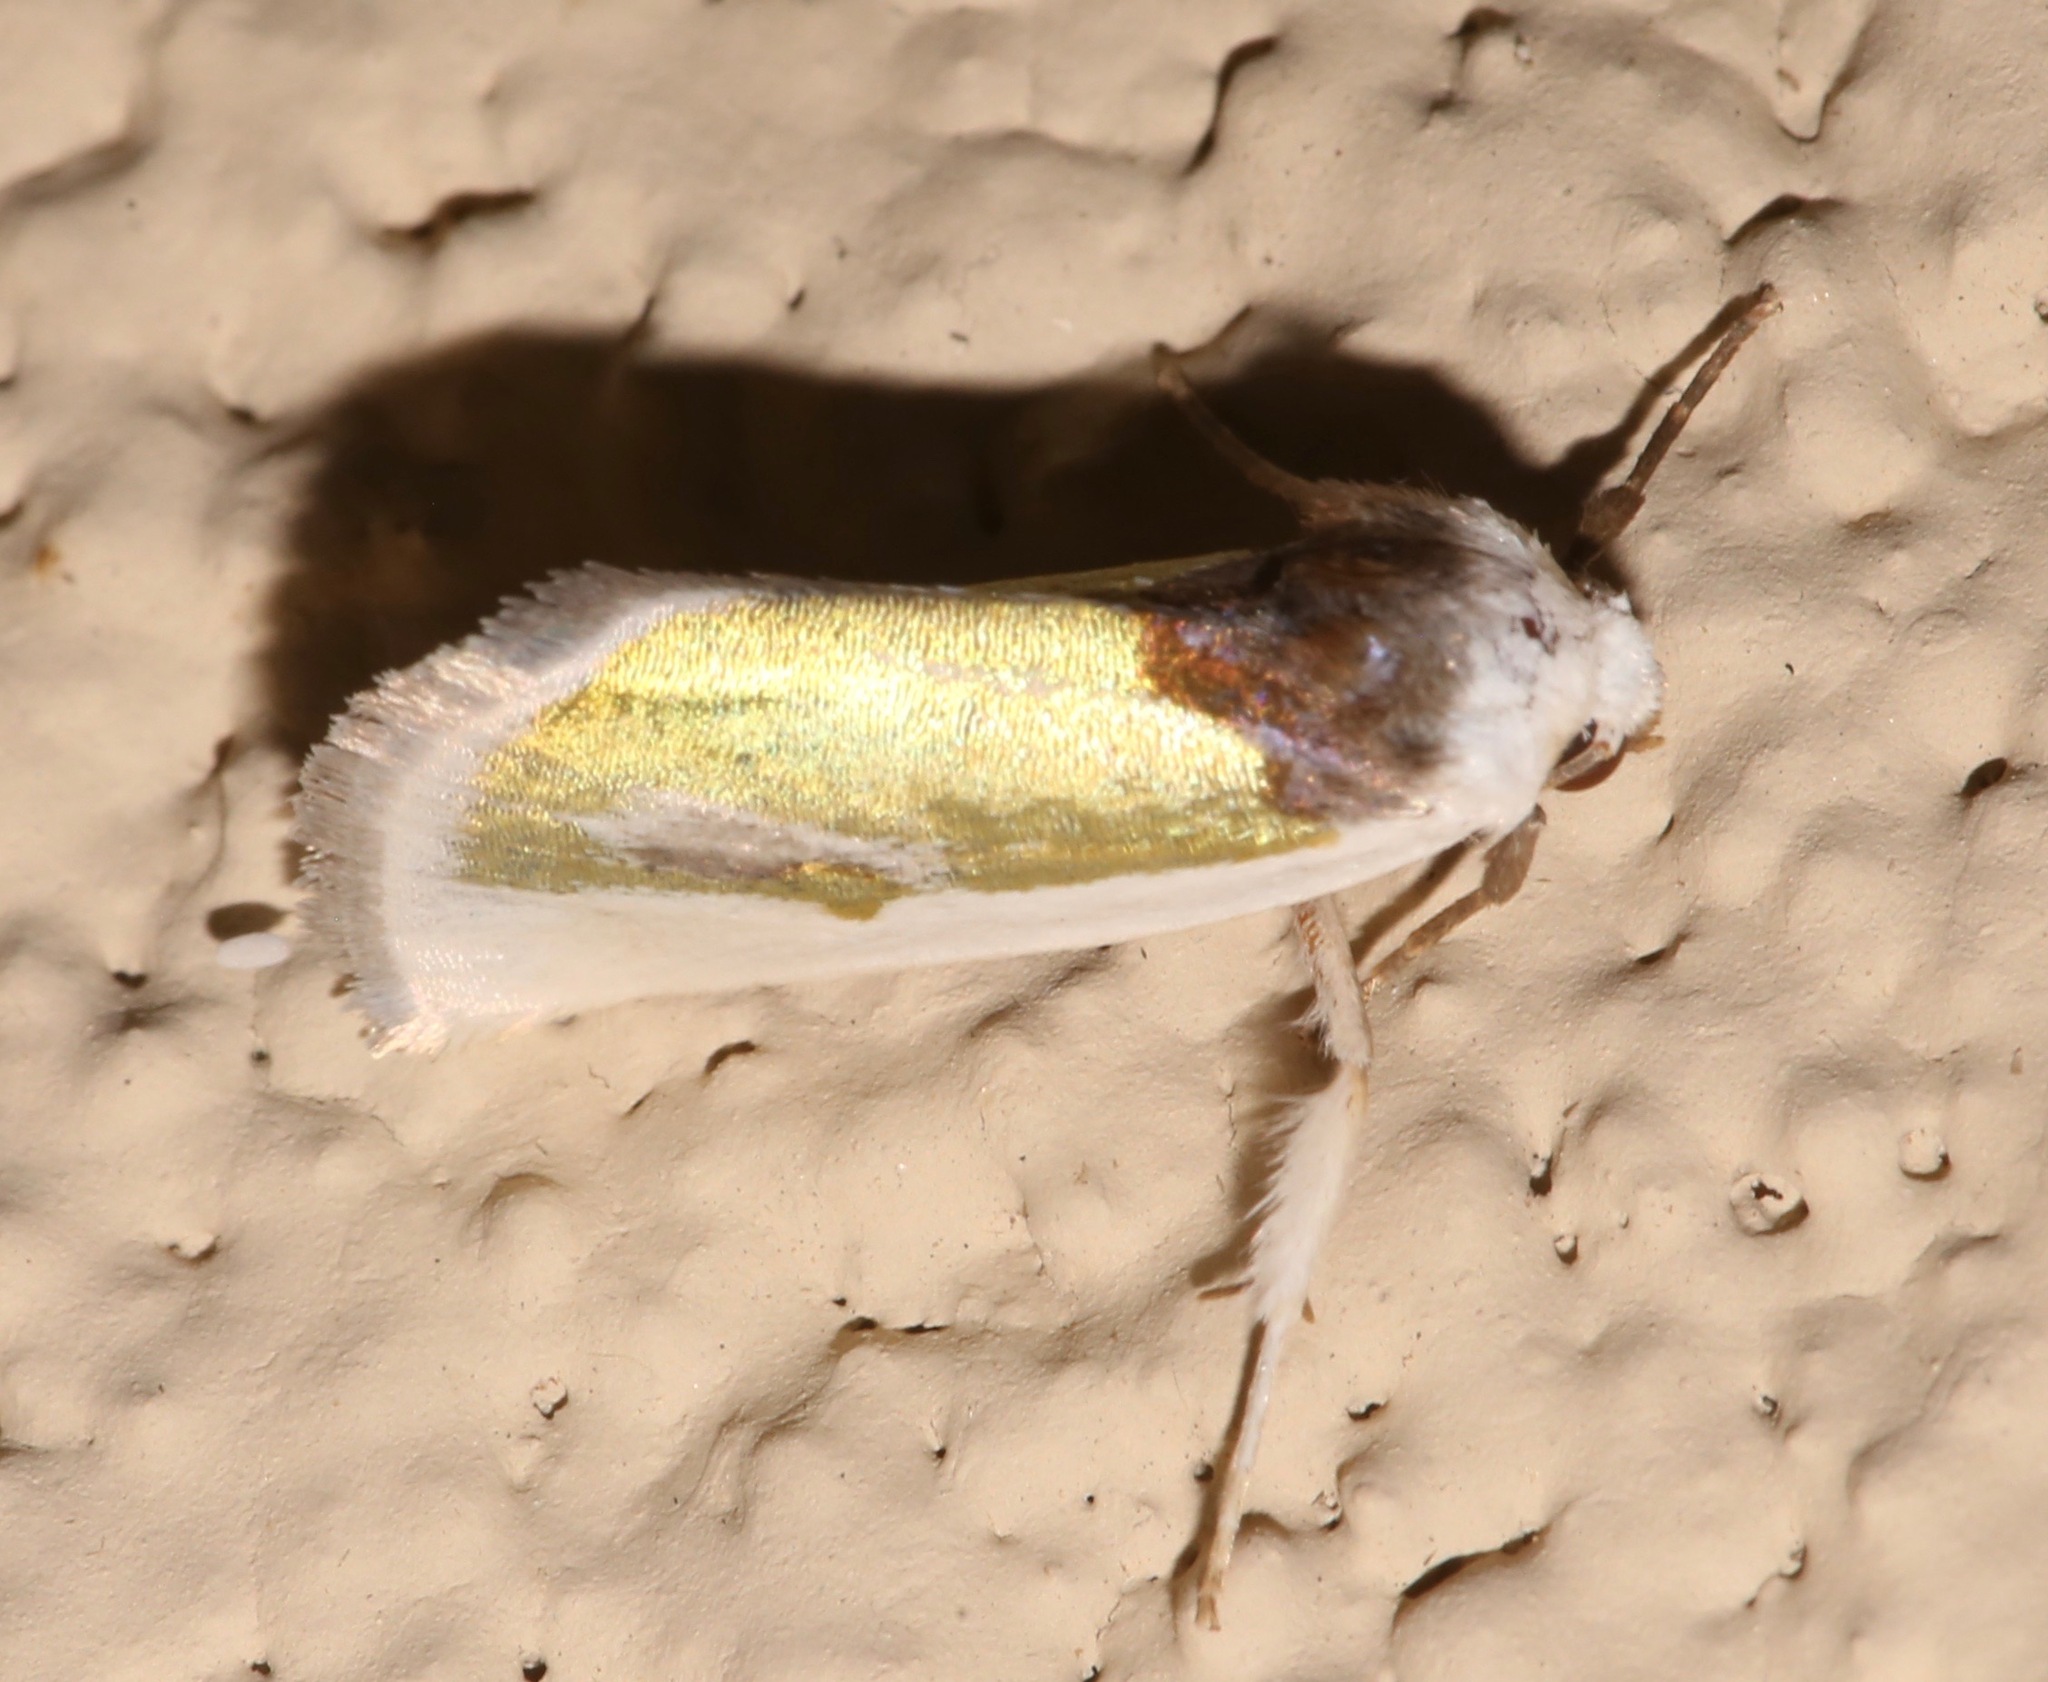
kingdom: Animalia
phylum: Arthropoda
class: Insecta
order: Lepidoptera
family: Noctuidae
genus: Neumoegenia
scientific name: Neumoegenia poetica
